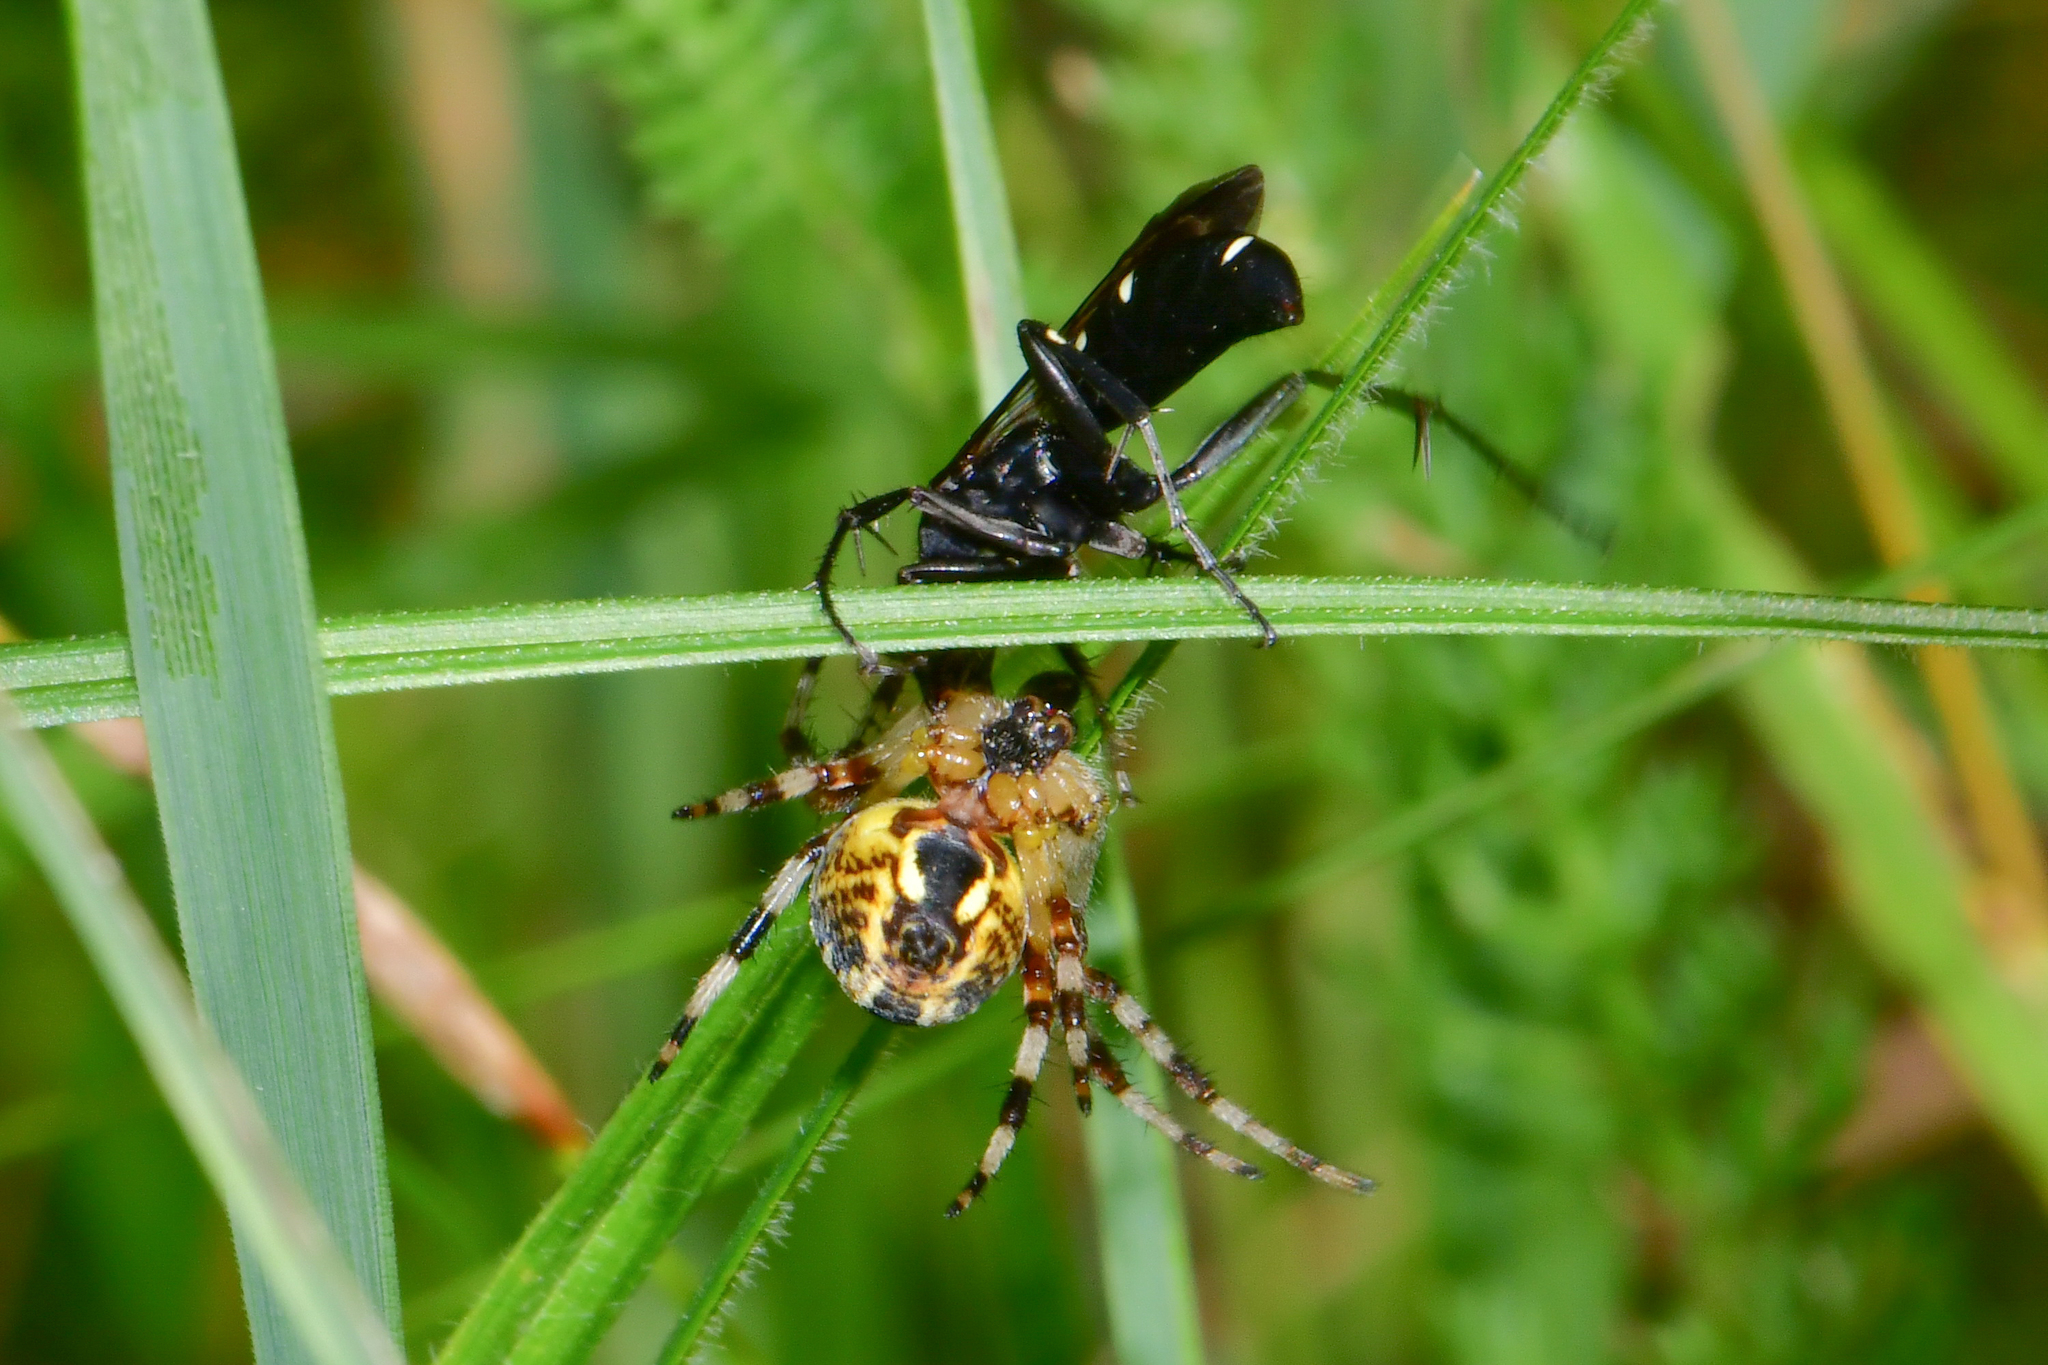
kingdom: Animalia
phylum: Arthropoda
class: Insecta
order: Hymenoptera
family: Pompilidae
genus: Episyron
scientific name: Episyron arrogans
